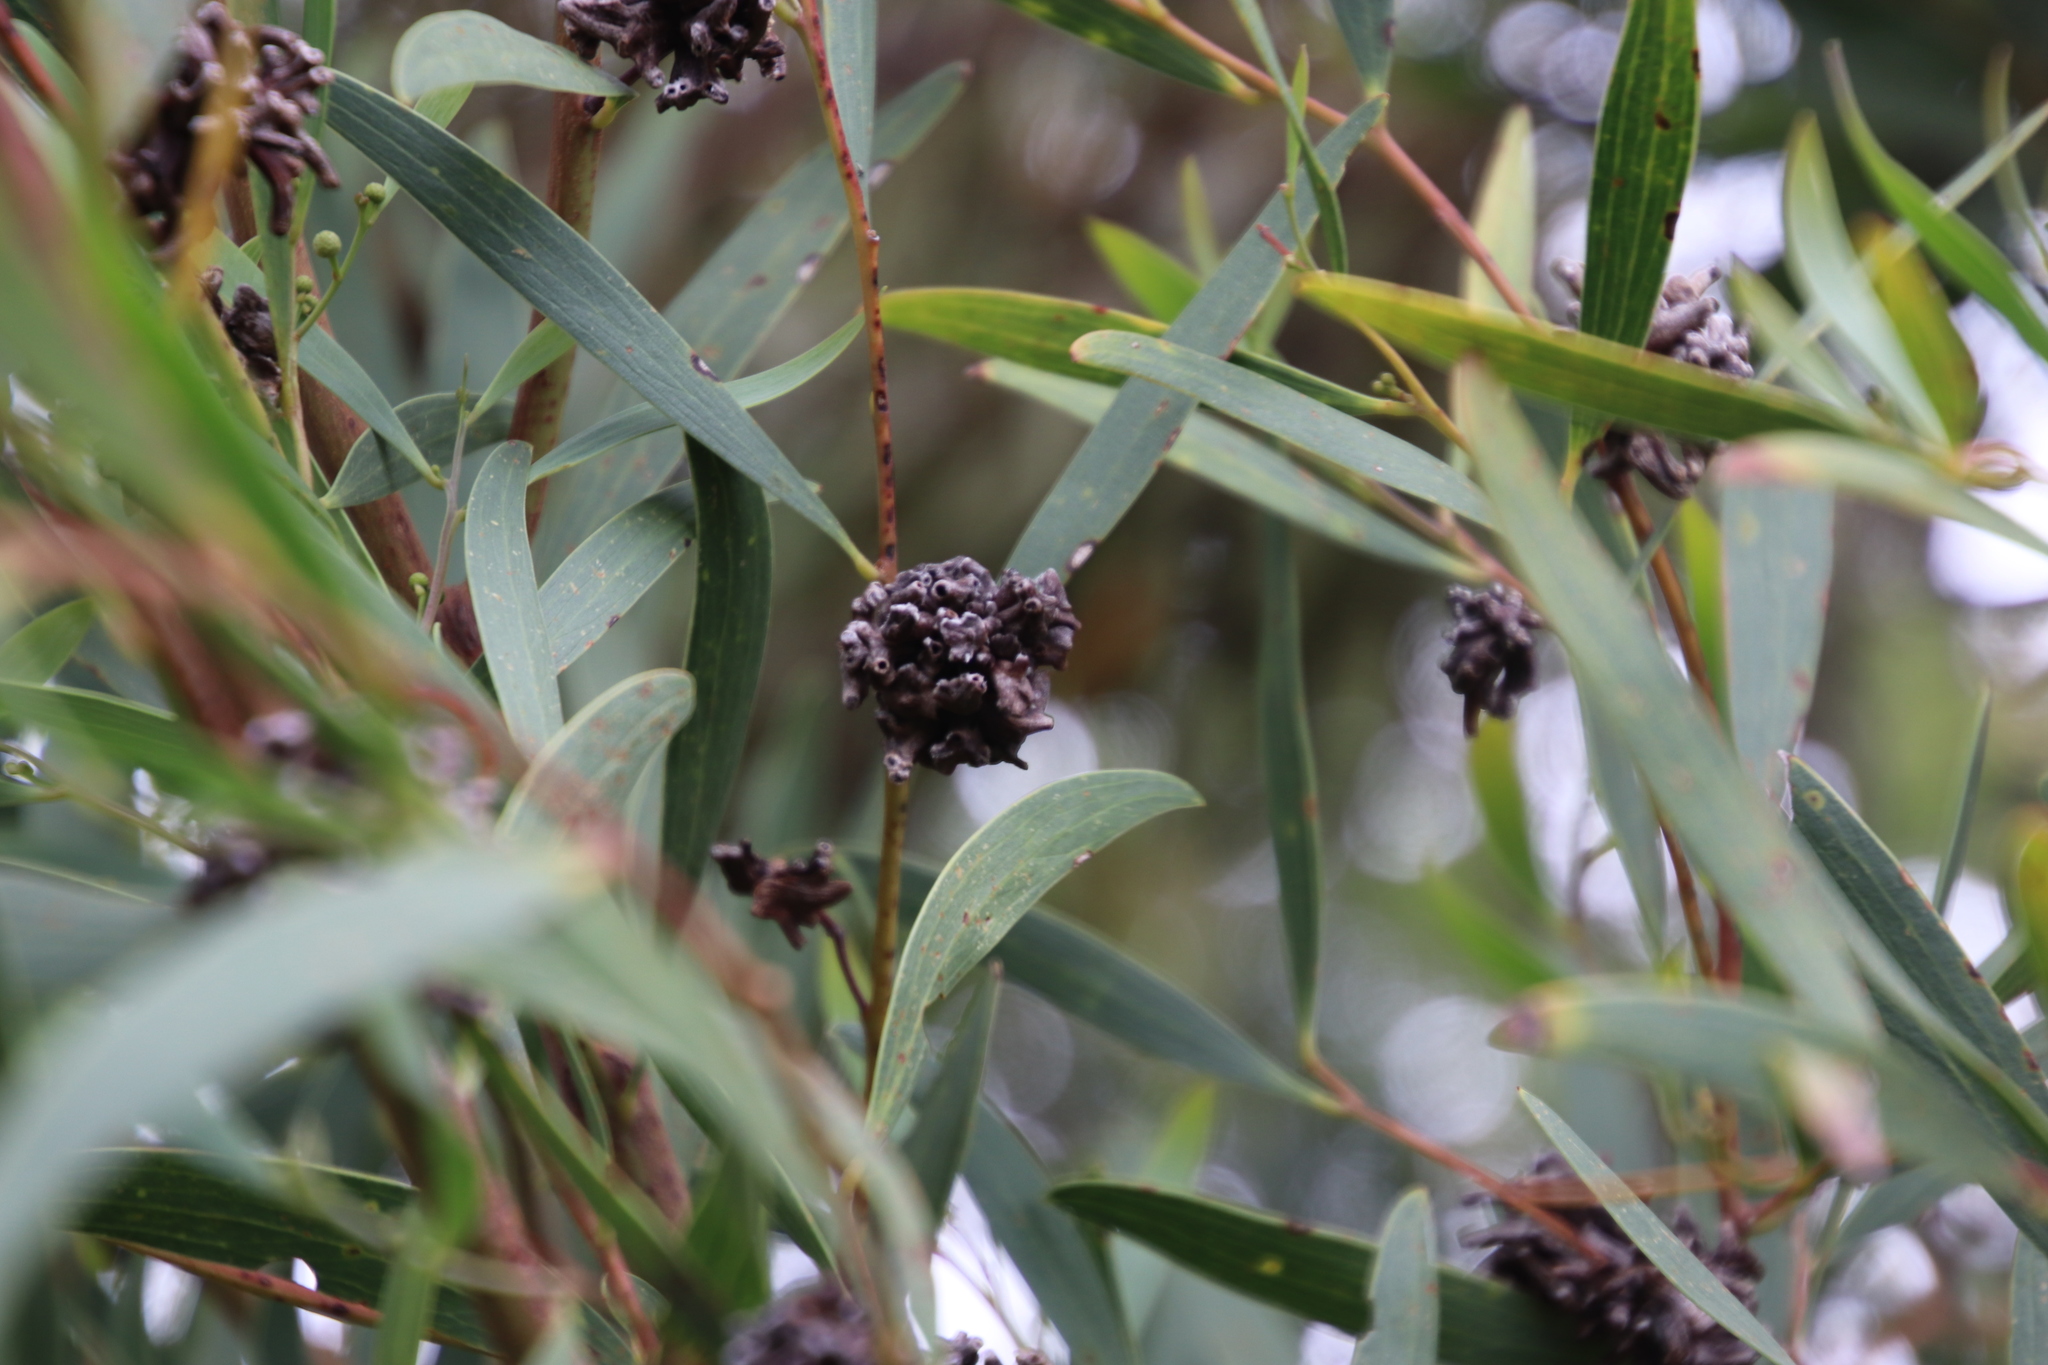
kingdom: Animalia
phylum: Arthropoda
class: Insecta
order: Diptera
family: Cecidomyiidae
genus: Dasineura
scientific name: Dasineura dielsi
